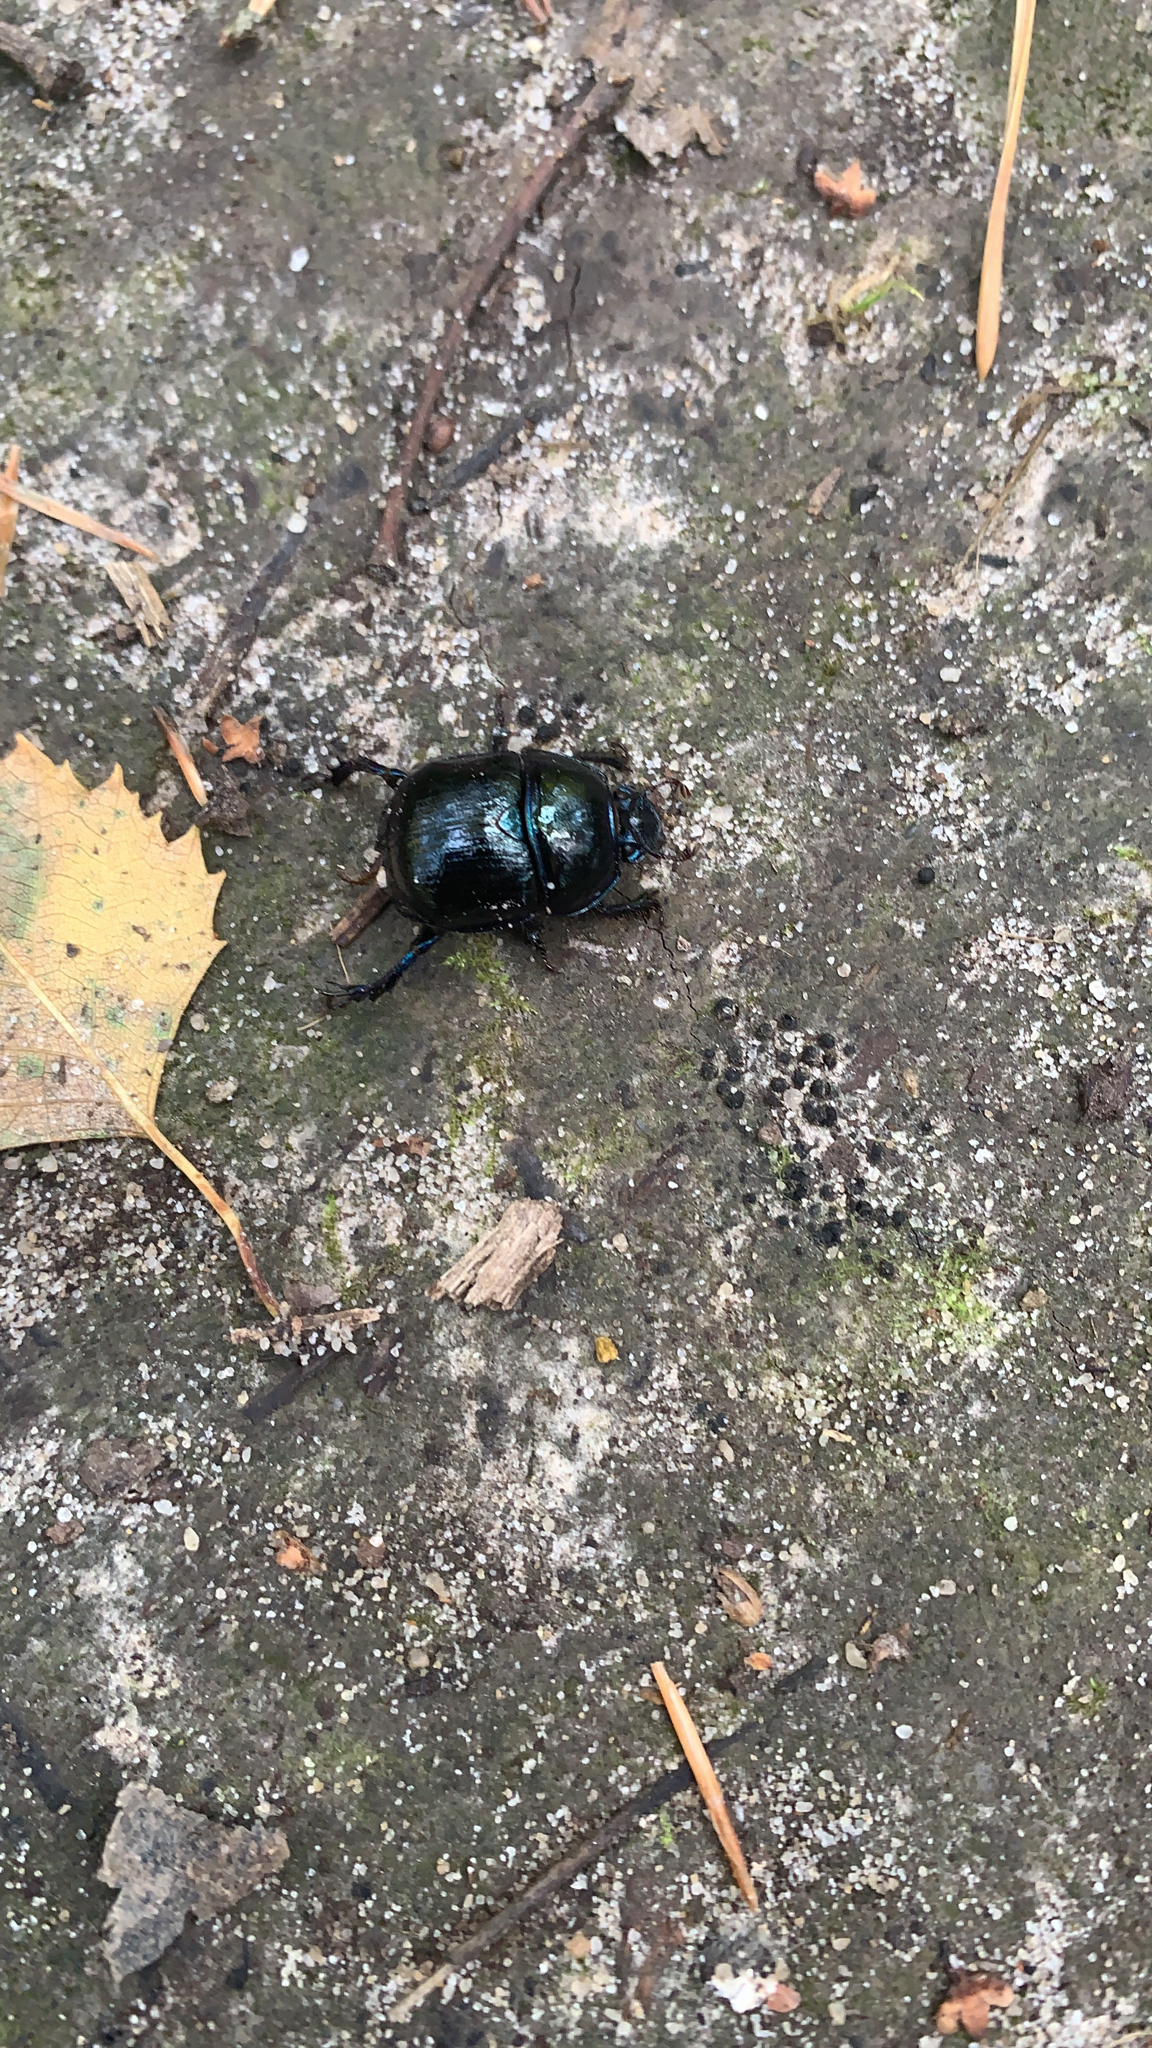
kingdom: Animalia
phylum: Arthropoda
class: Insecta
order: Coleoptera
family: Geotrupidae
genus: Anoplotrupes
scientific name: Anoplotrupes stercorosus
